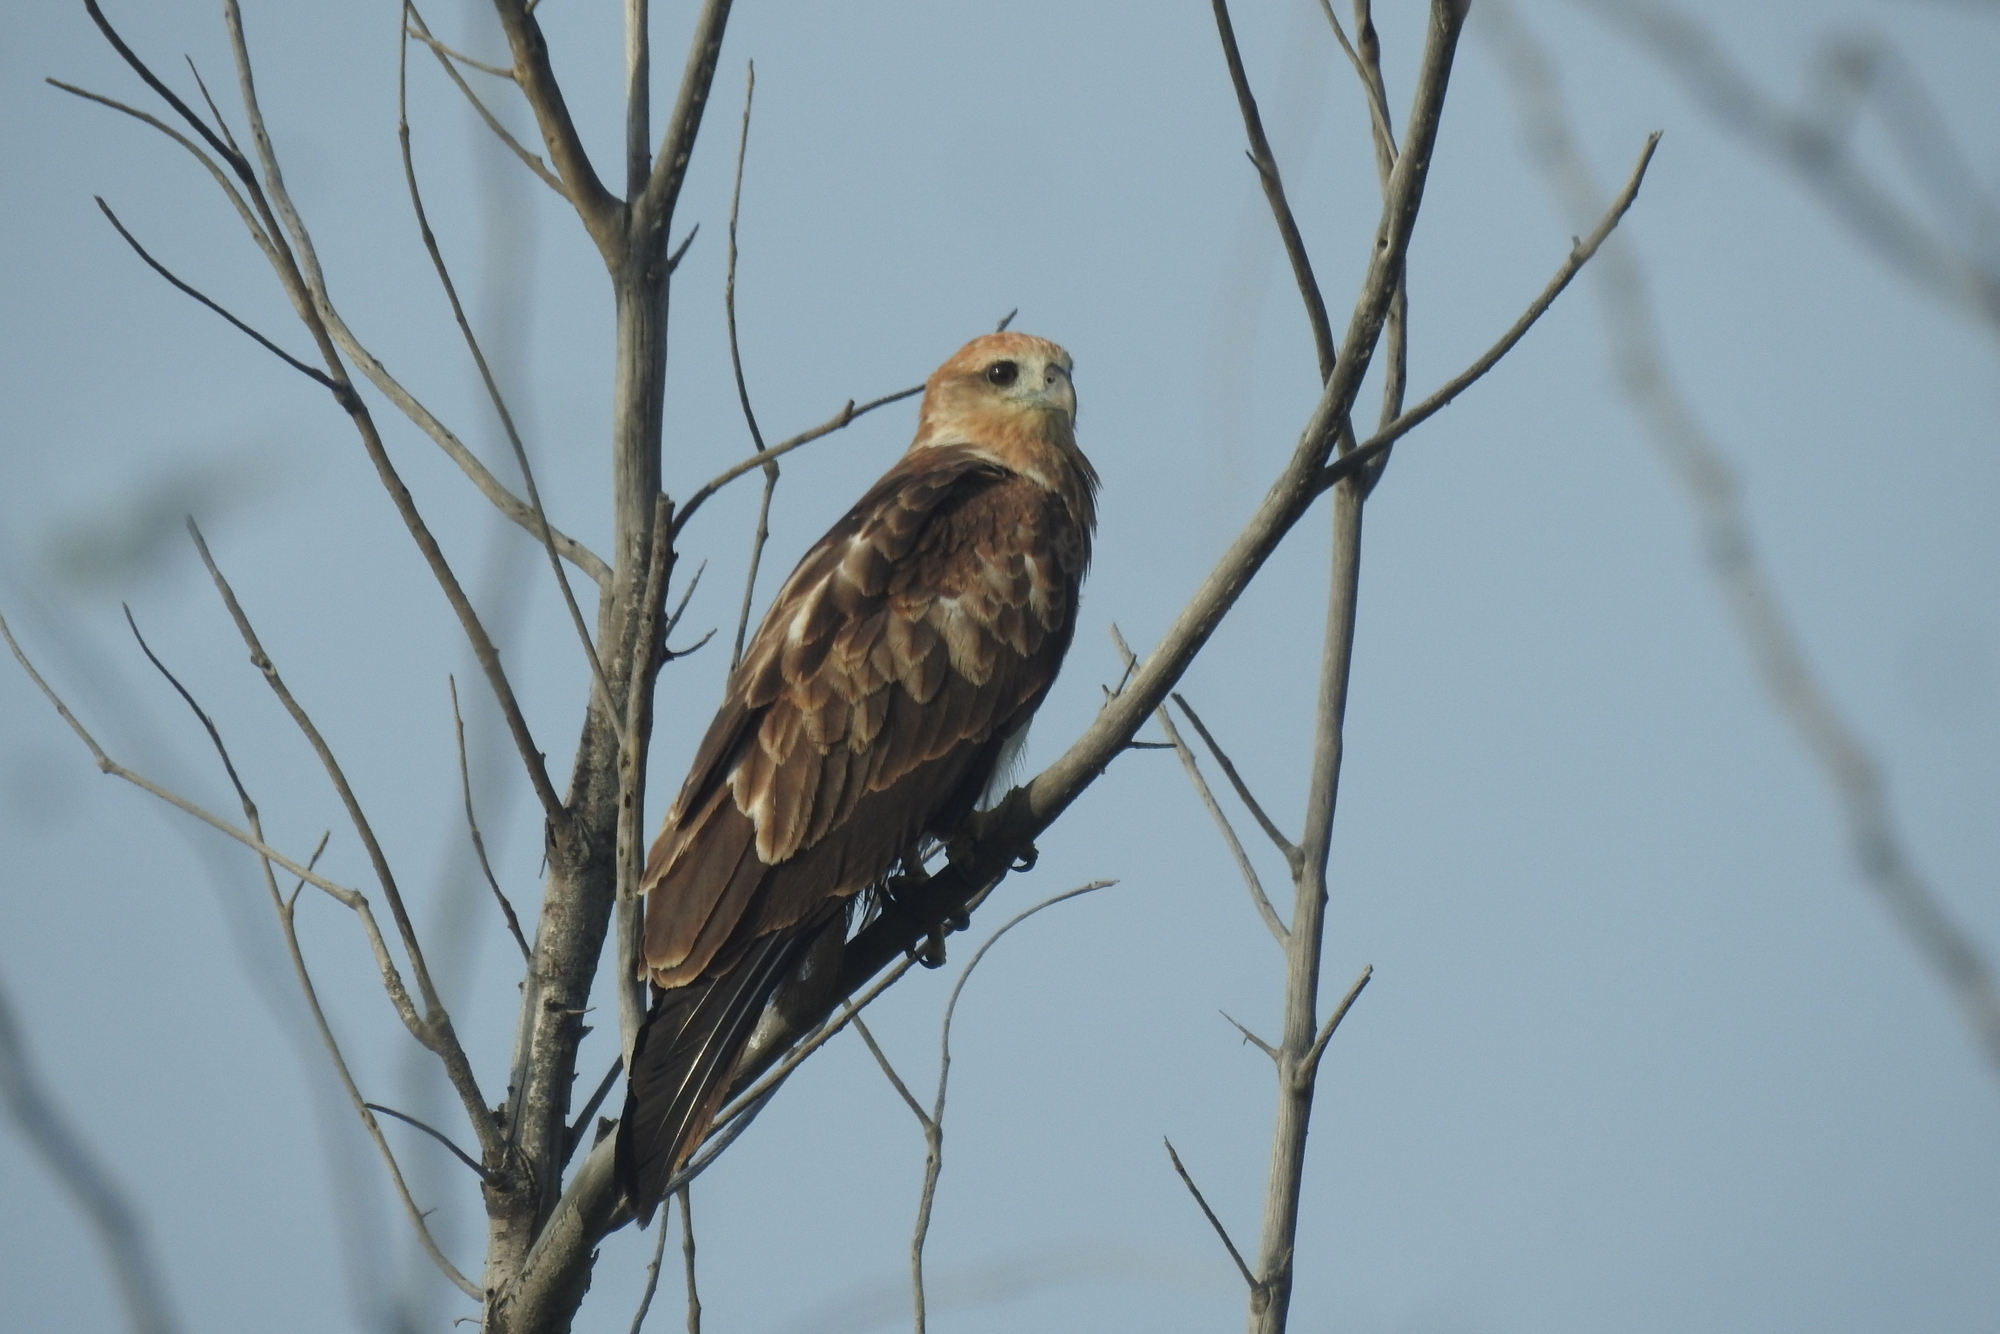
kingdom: Animalia
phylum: Chordata
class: Aves
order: Accipitriformes
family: Accipitridae
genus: Haliastur
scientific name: Haliastur indus
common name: Brahminy kite
